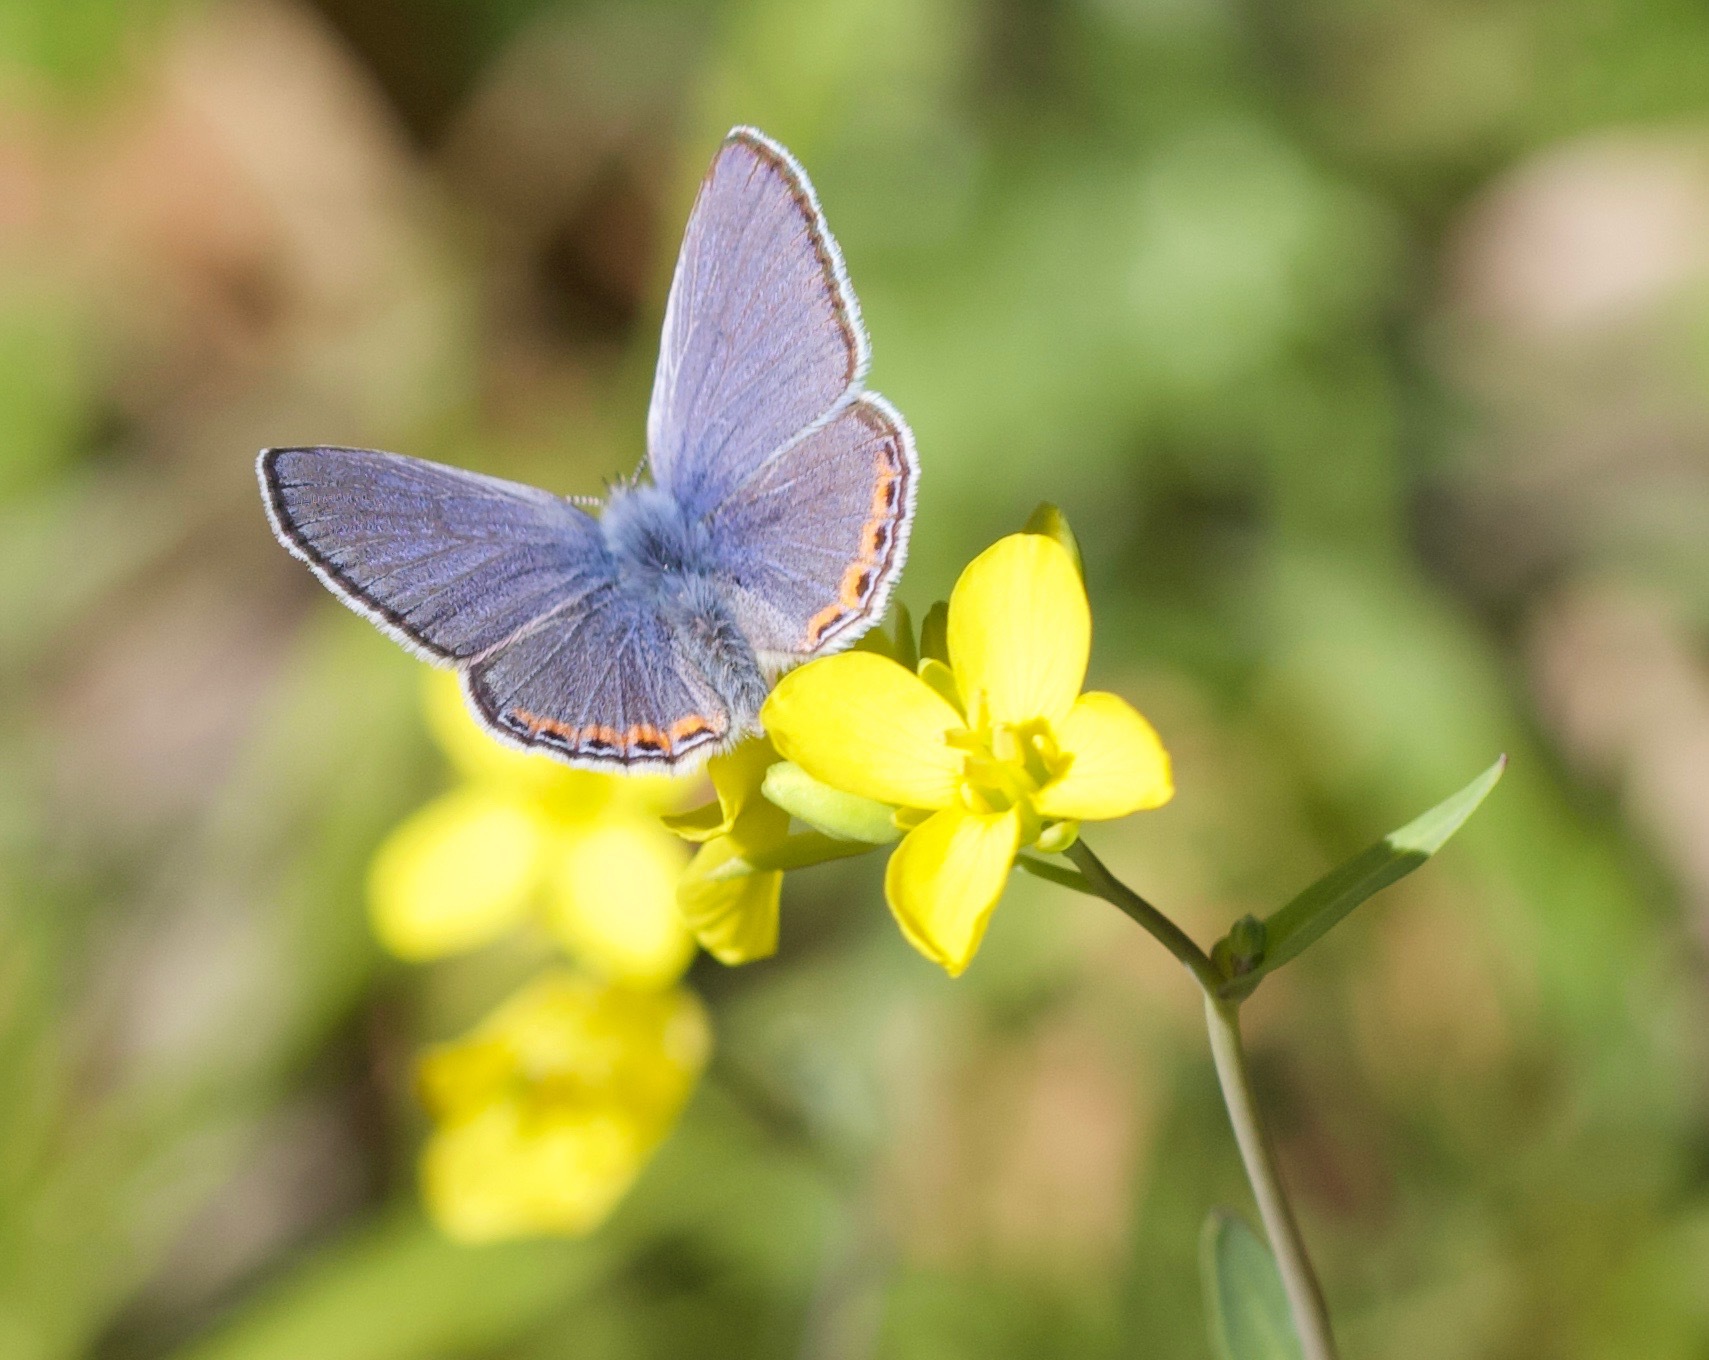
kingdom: Animalia
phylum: Arthropoda
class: Insecta
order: Lepidoptera
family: Lycaenidae
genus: Icaricia
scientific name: Icaricia acmon
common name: Acmon blue
